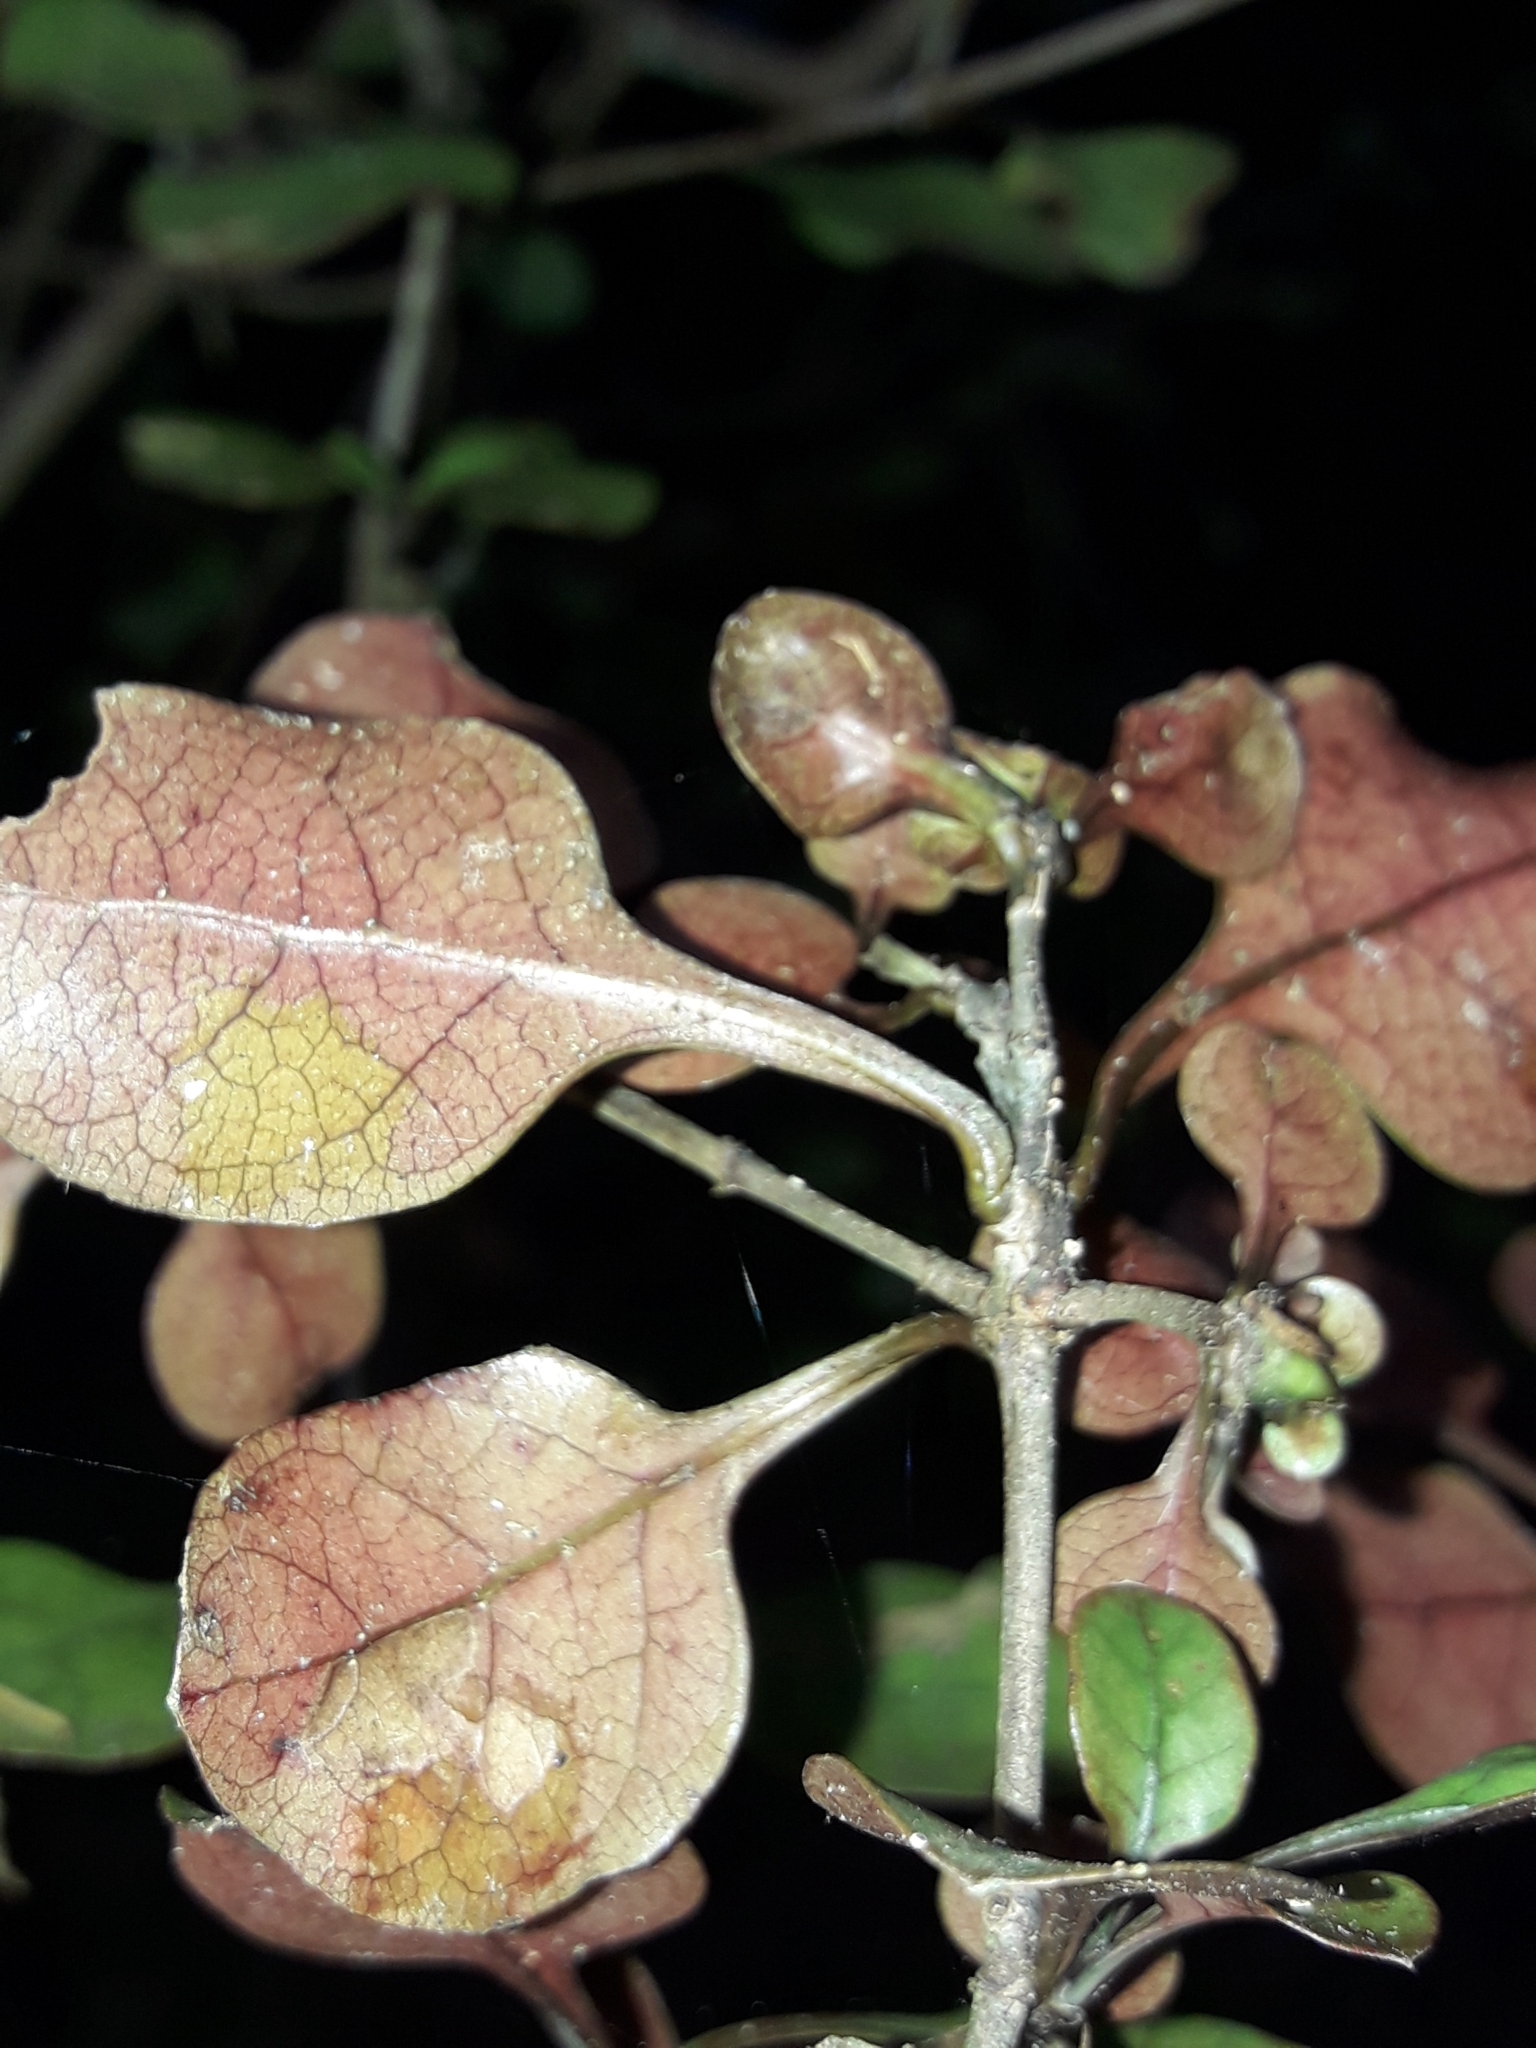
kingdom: Plantae
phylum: Tracheophyta
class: Magnoliopsida
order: Gentianales
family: Rubiaceae
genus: Coprosma
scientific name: Coprosma arborea
